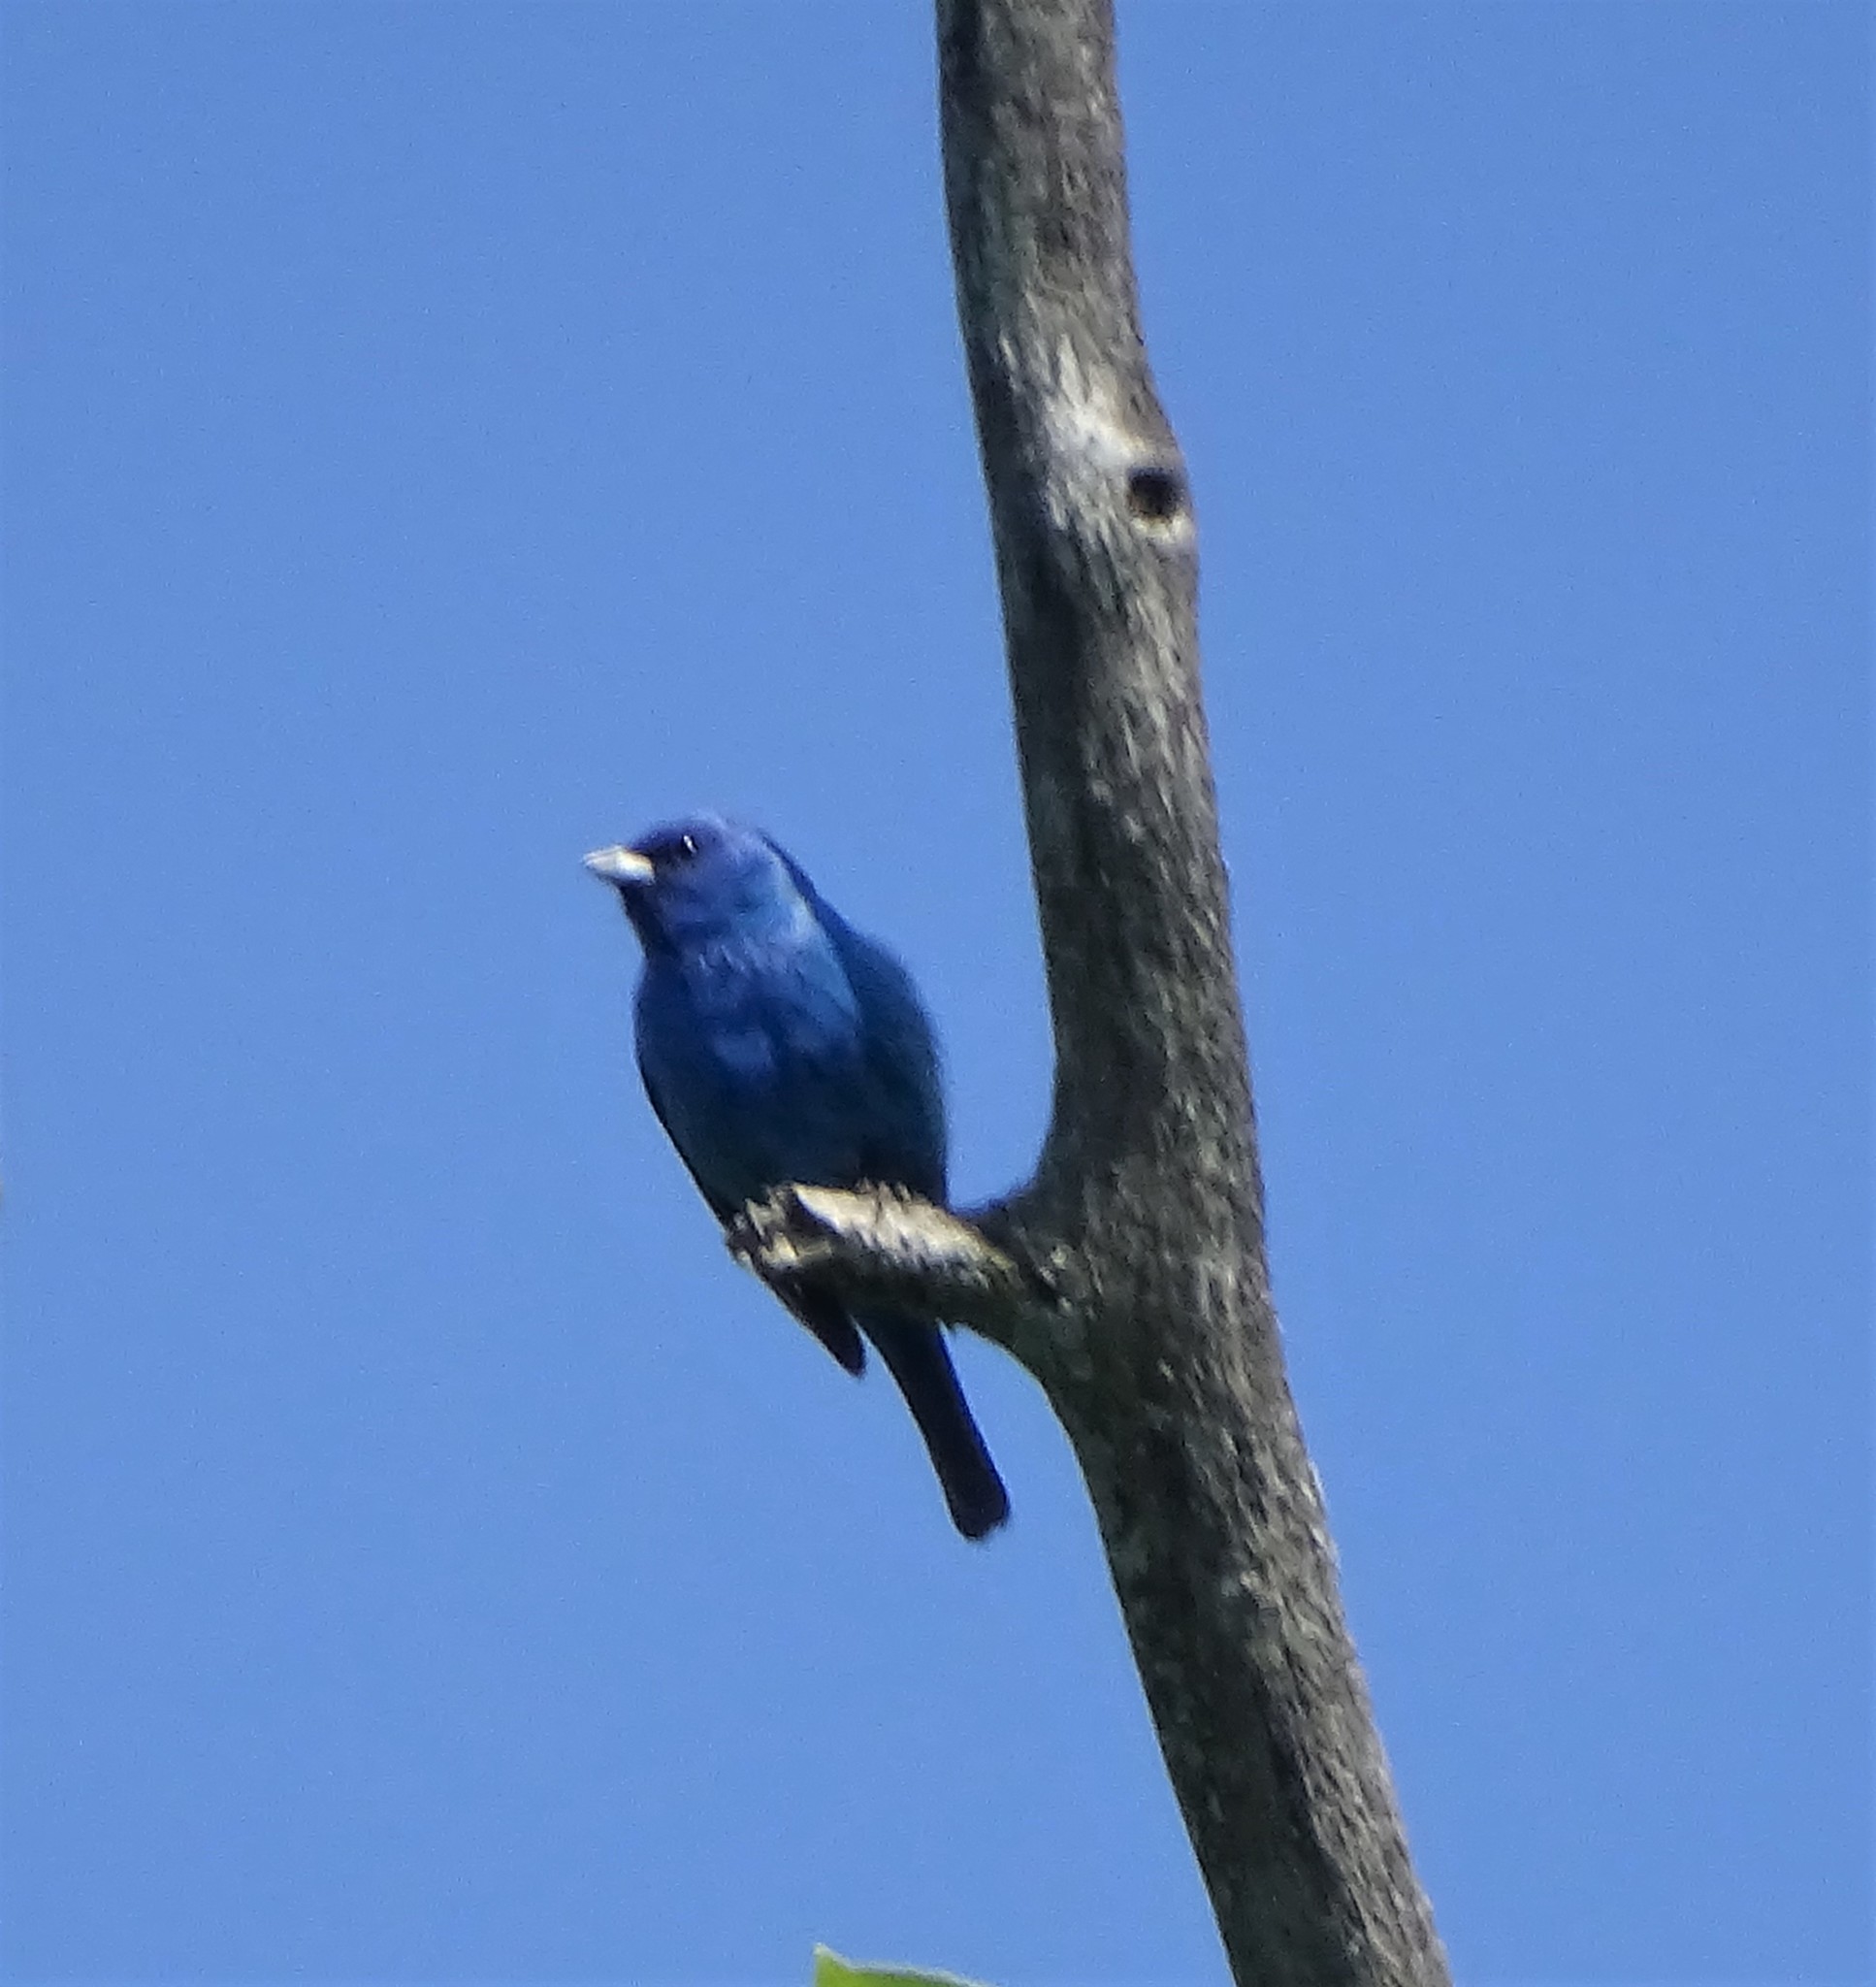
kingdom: Animalia
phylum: Chordata
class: Aves
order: Passeriformes
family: Cardinalidae
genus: Passerina
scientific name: Passerina cyanea
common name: Indigo bunting
